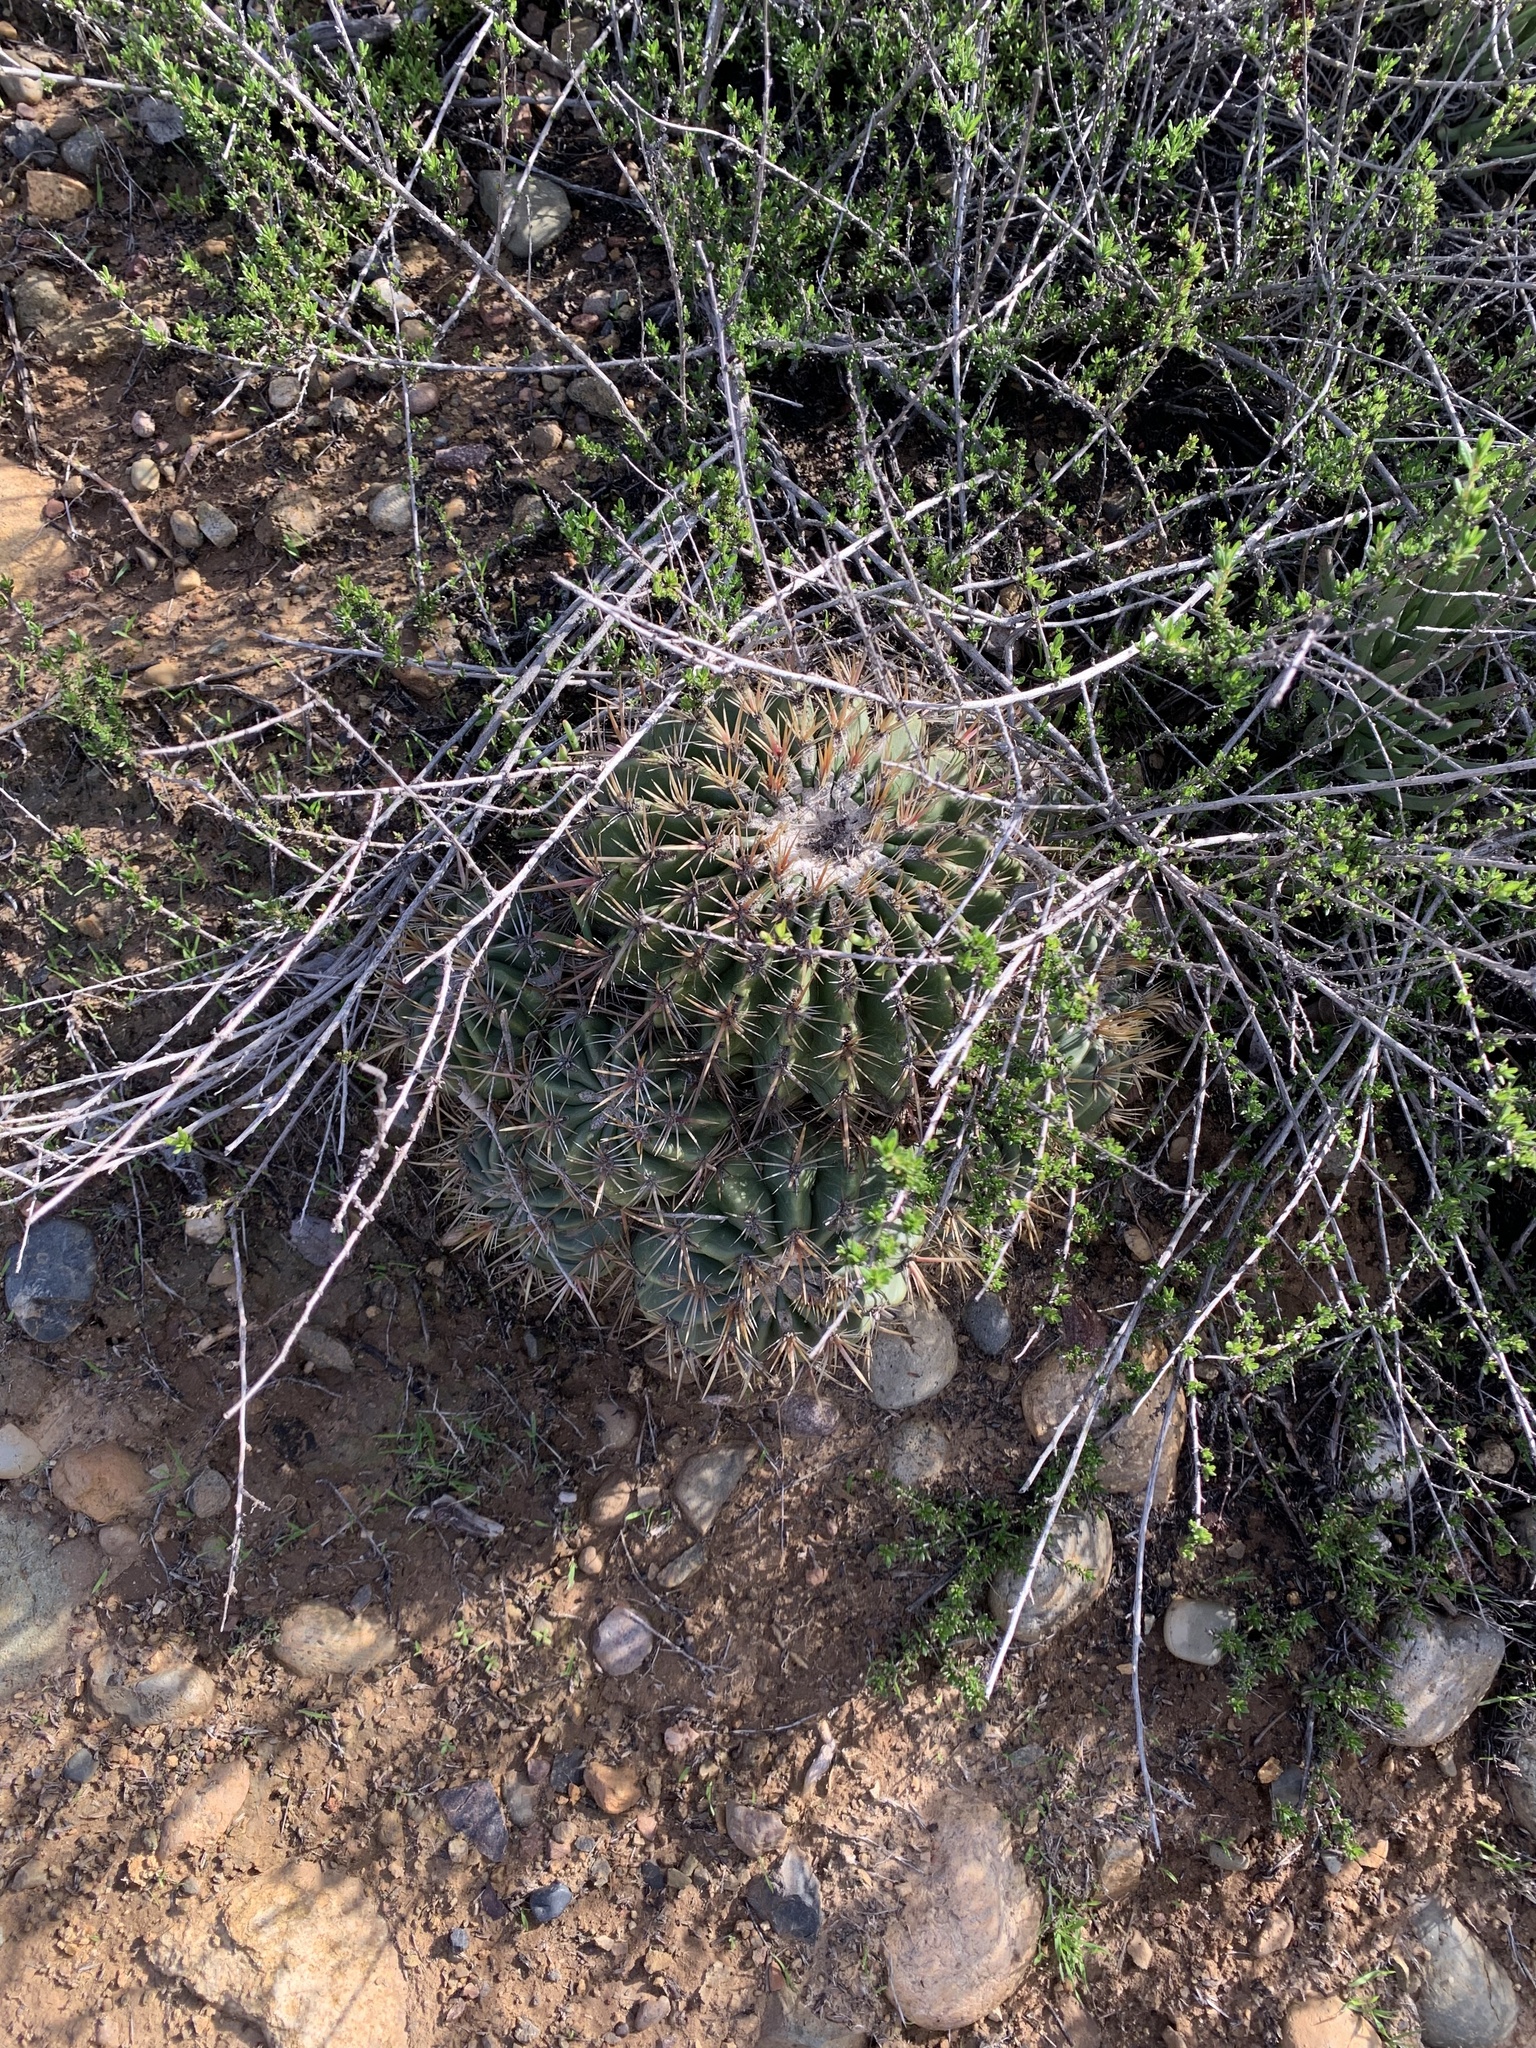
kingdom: Plantae
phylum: Tracheophyta
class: Magnoliopsida
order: Caryophyllales
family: Cactaceae
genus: Ferocactus
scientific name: Ferocactus viridescens
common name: San diego barrel cactus
